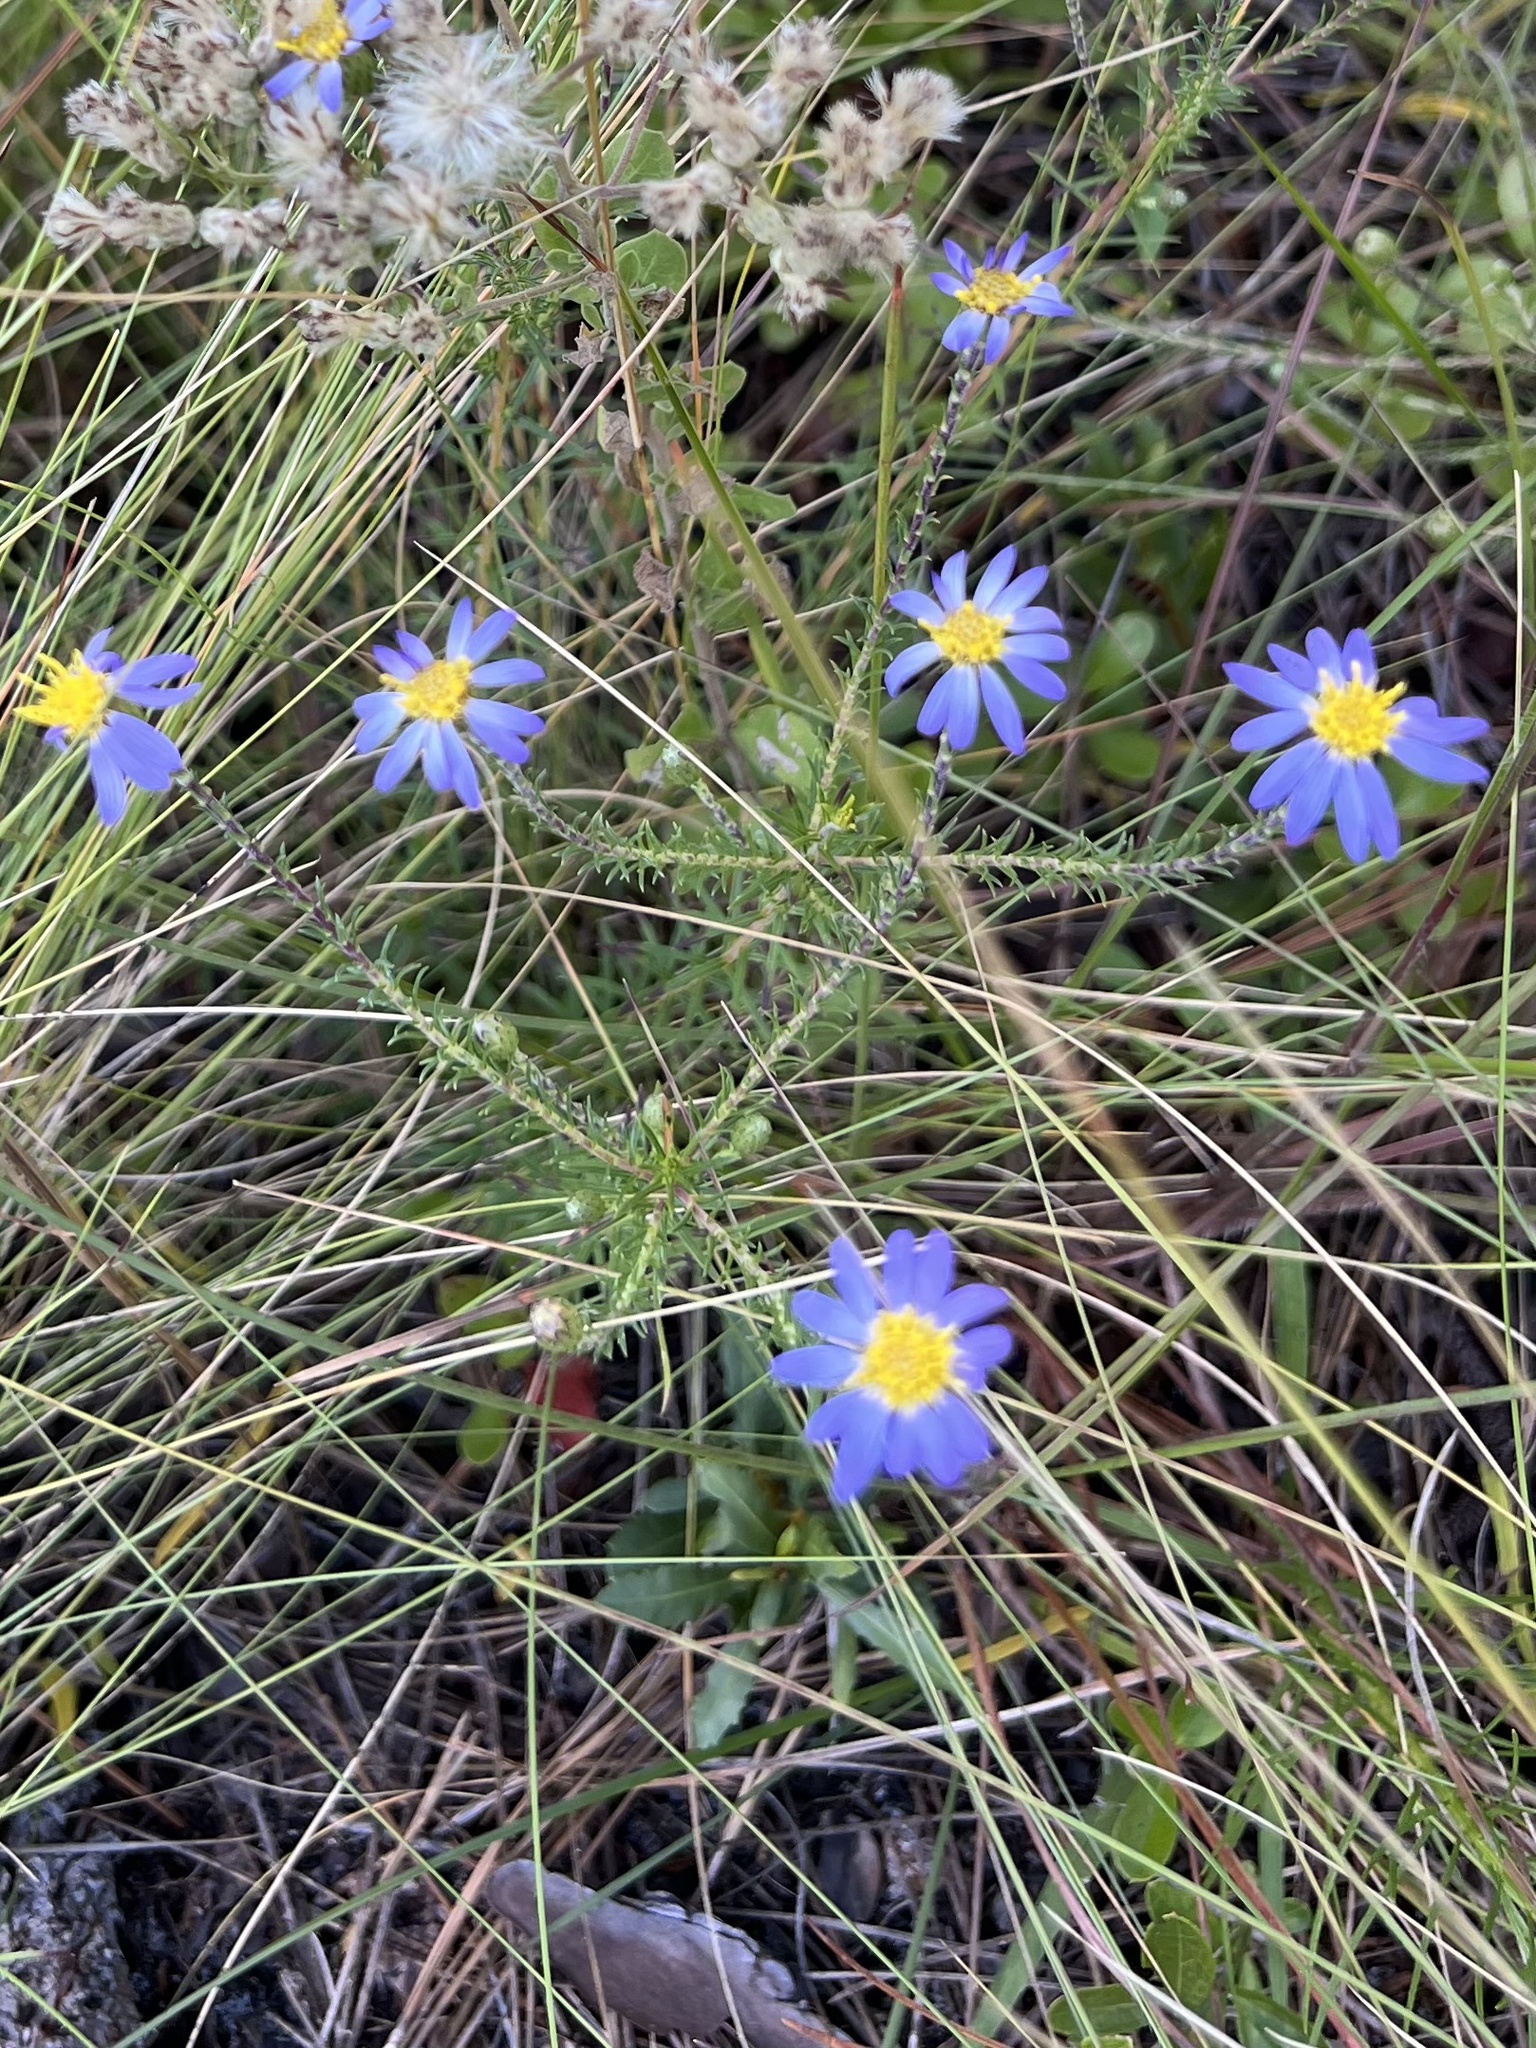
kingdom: Plantae
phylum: Tracheophyta
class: Magnoliopsida
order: Asterales
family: Asteraceae
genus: Ionactis
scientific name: Ionactis linariifolia
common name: Flax-leaf aster
